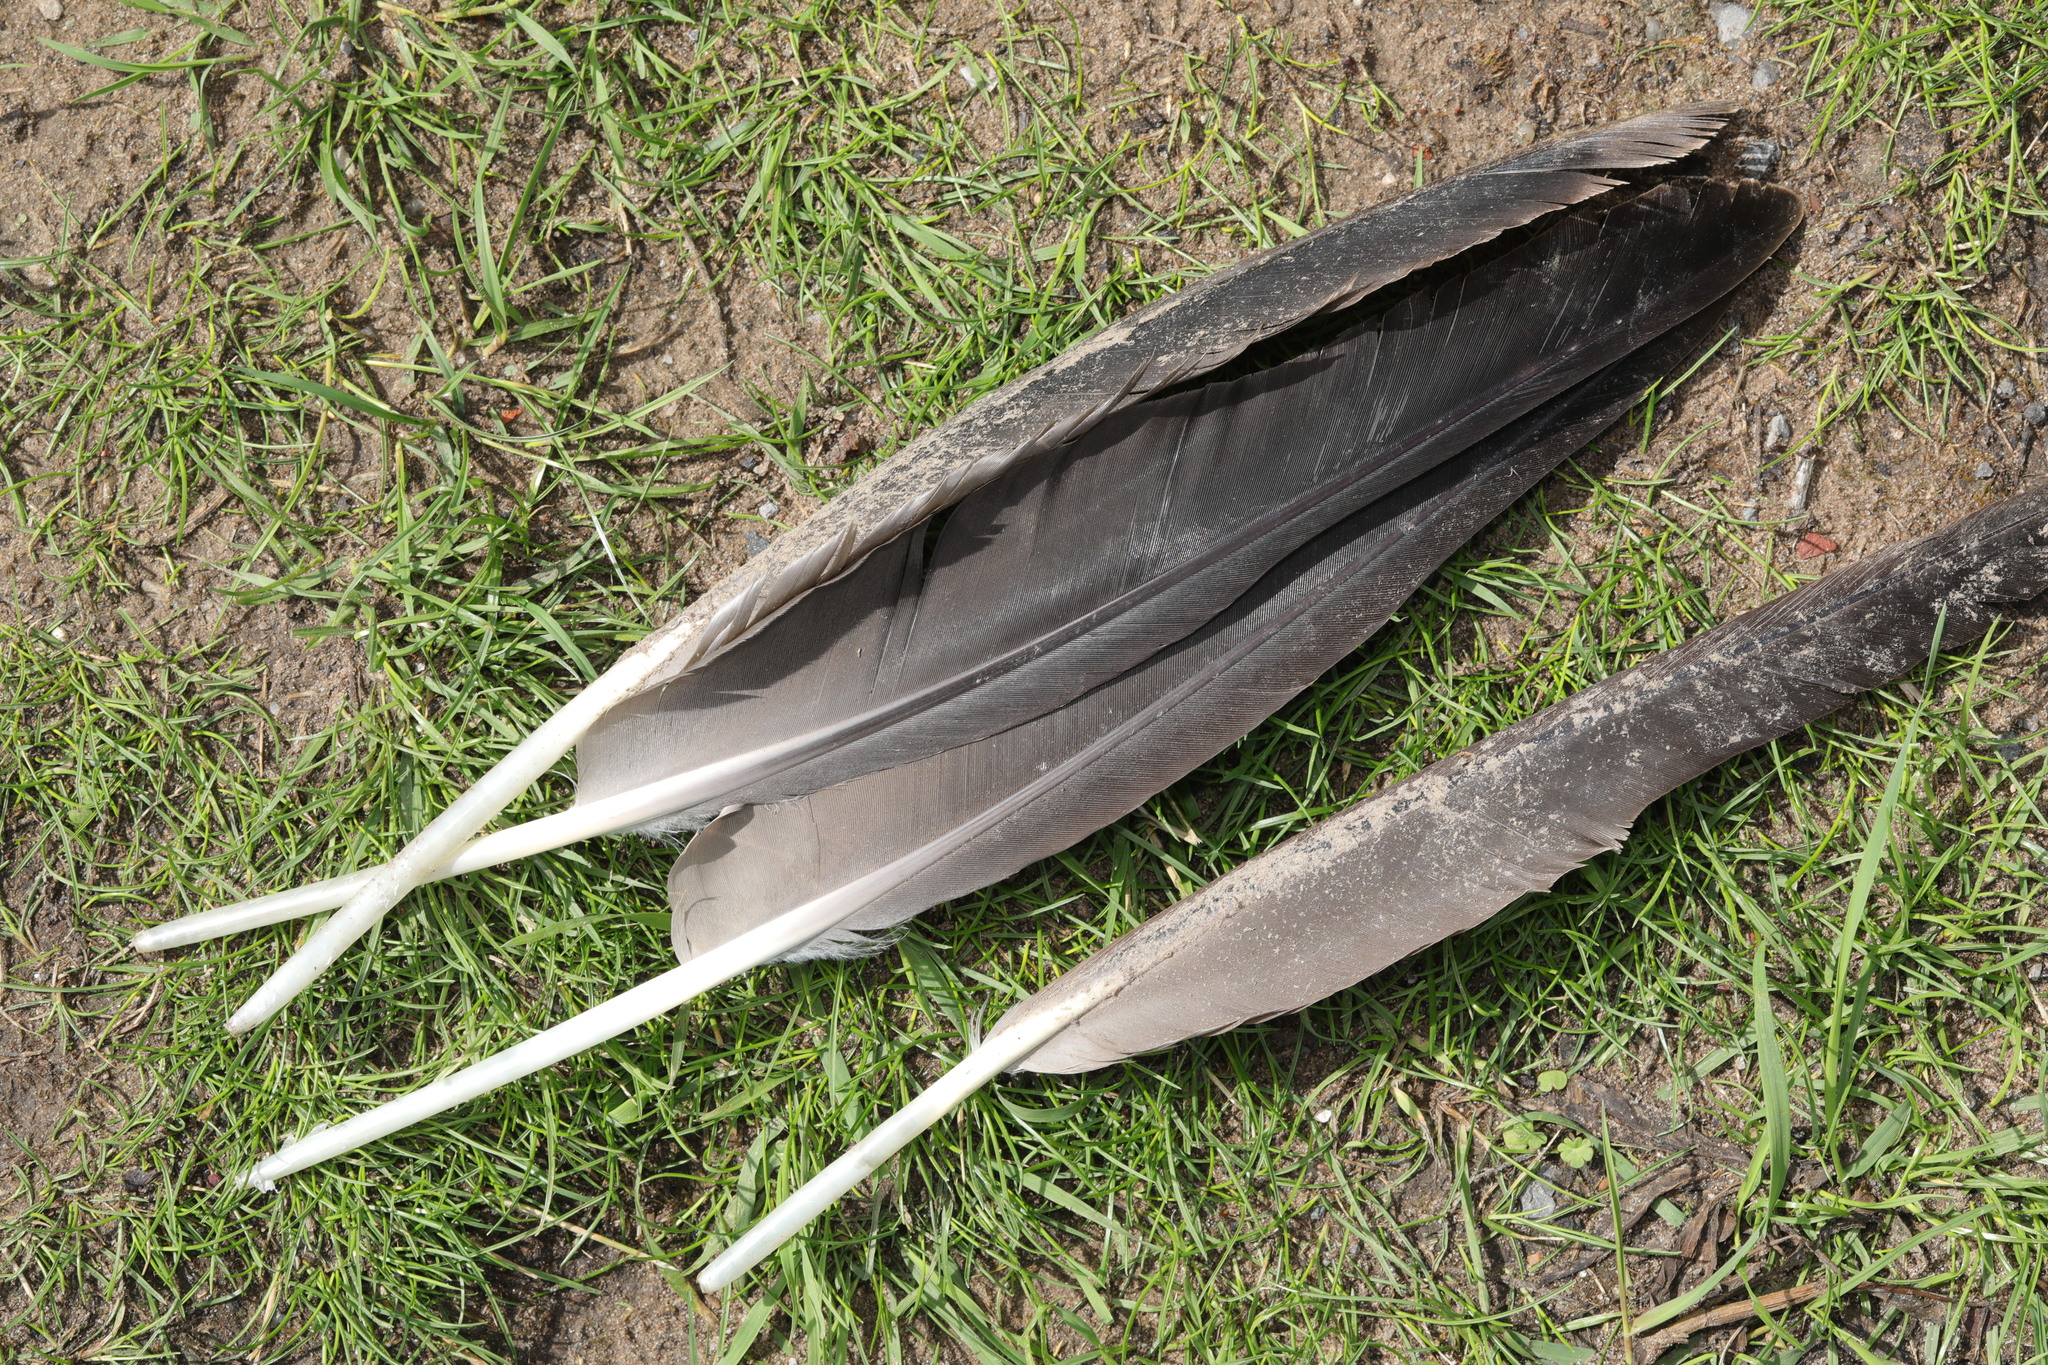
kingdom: Animalia
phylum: Chordata
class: Aves
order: Anseriformes
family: Anatidae
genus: Branta
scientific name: Branta canadensis
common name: Canada goose
